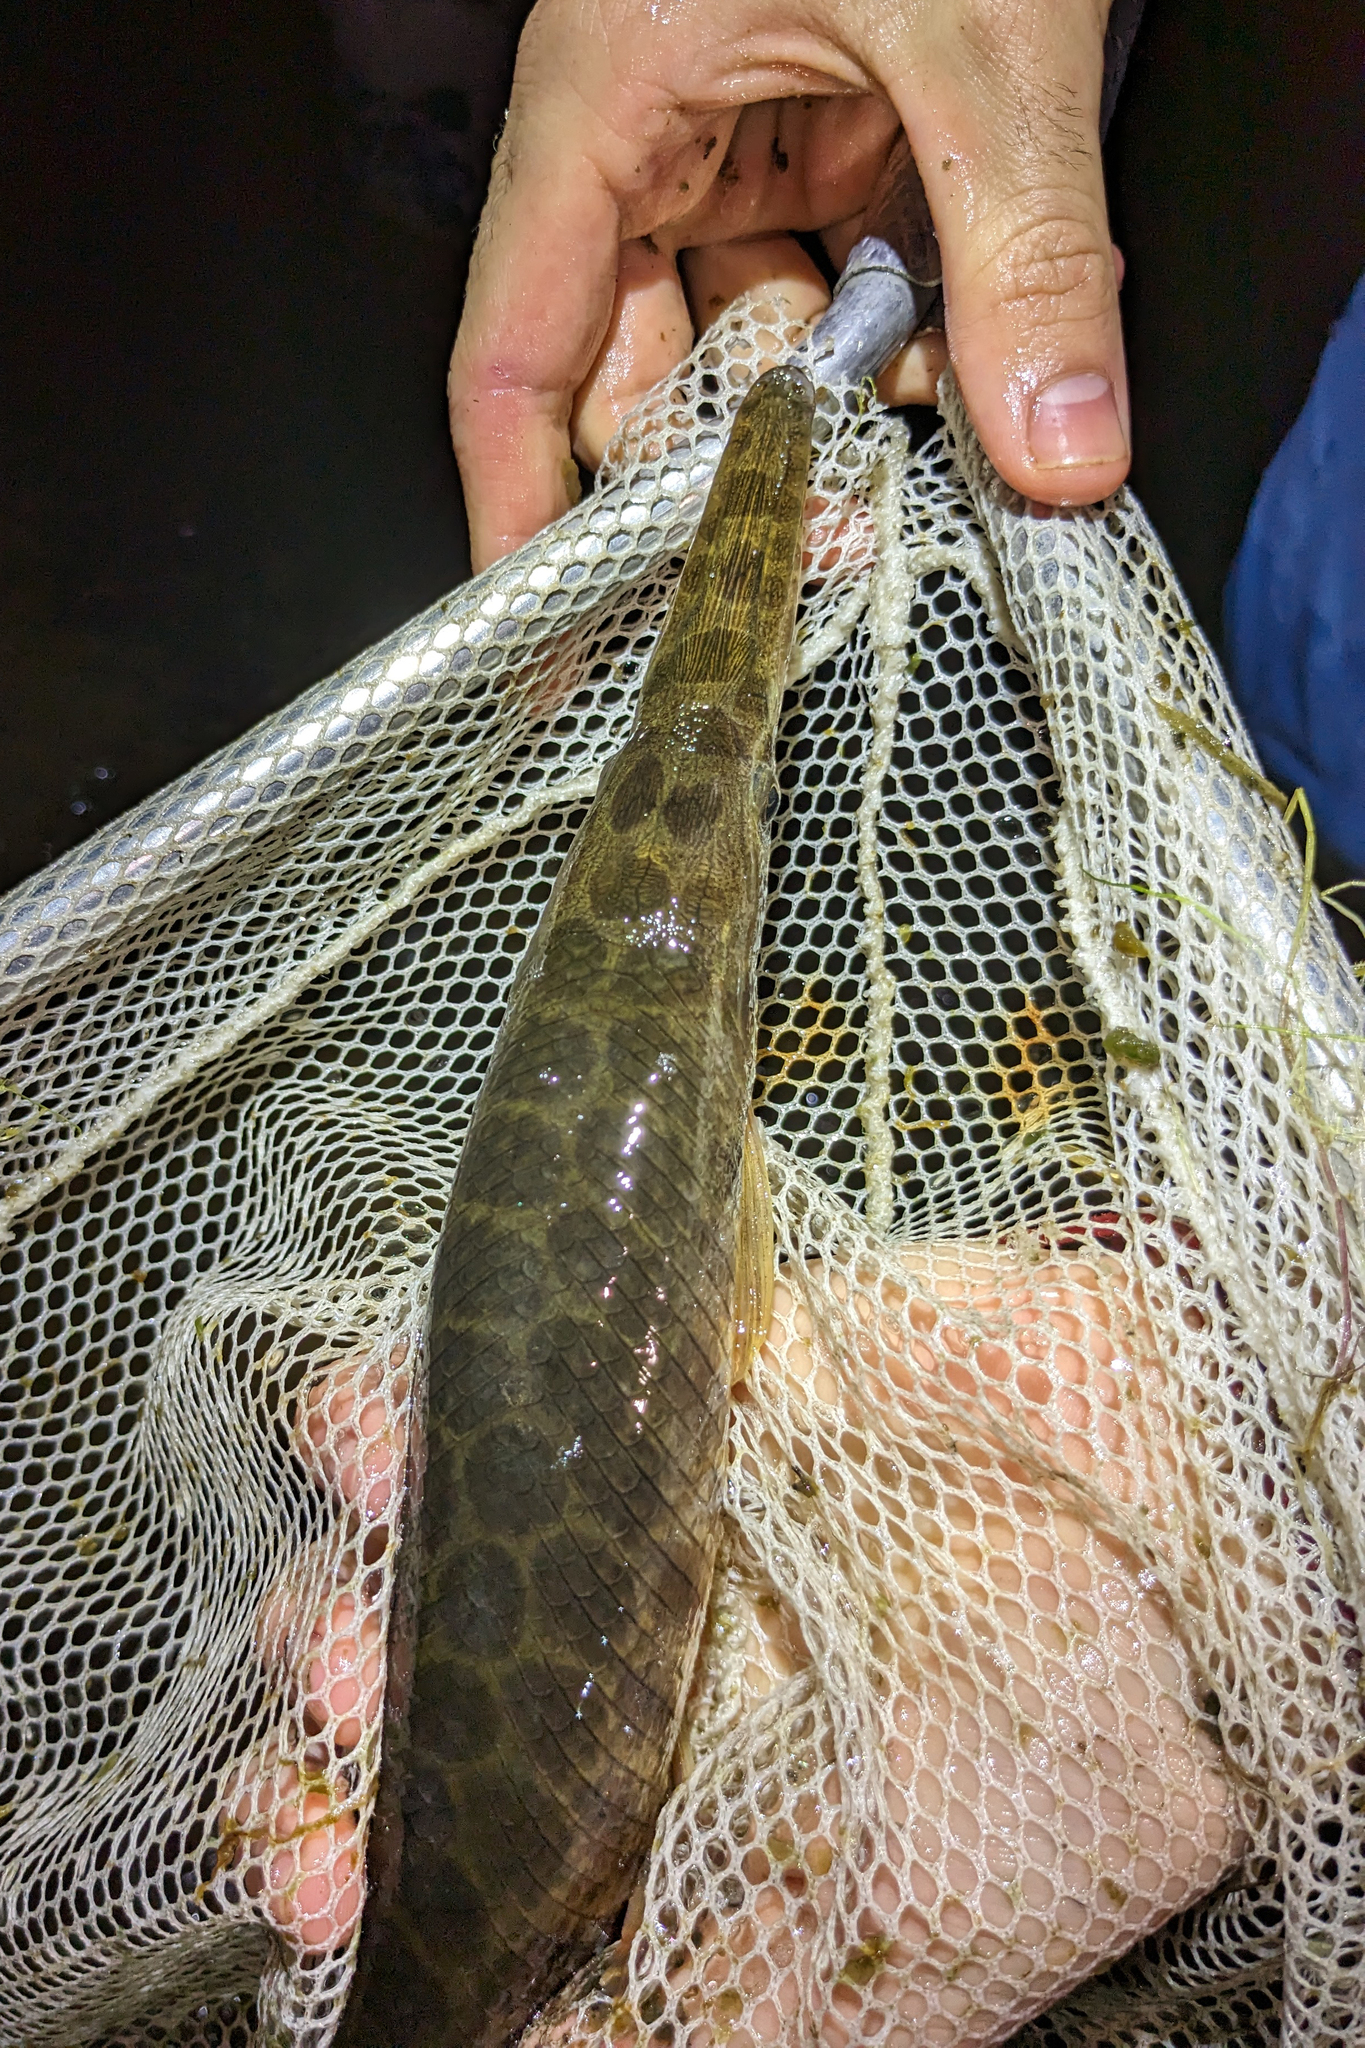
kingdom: Animalia
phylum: Chordata
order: Lepisosteiformes
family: Lepisosteidae
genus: Lepisosteus
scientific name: Lepisosteus platyrhincus
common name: Florida gar
